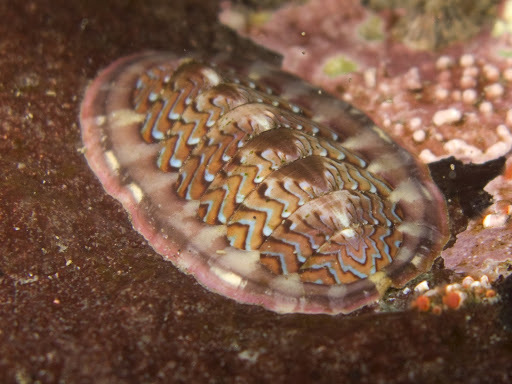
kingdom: Animalia
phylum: Mollusca
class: Polyplacophora
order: Chitonida
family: Tonicellidae
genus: Tonicella
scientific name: Tonicella lokii
